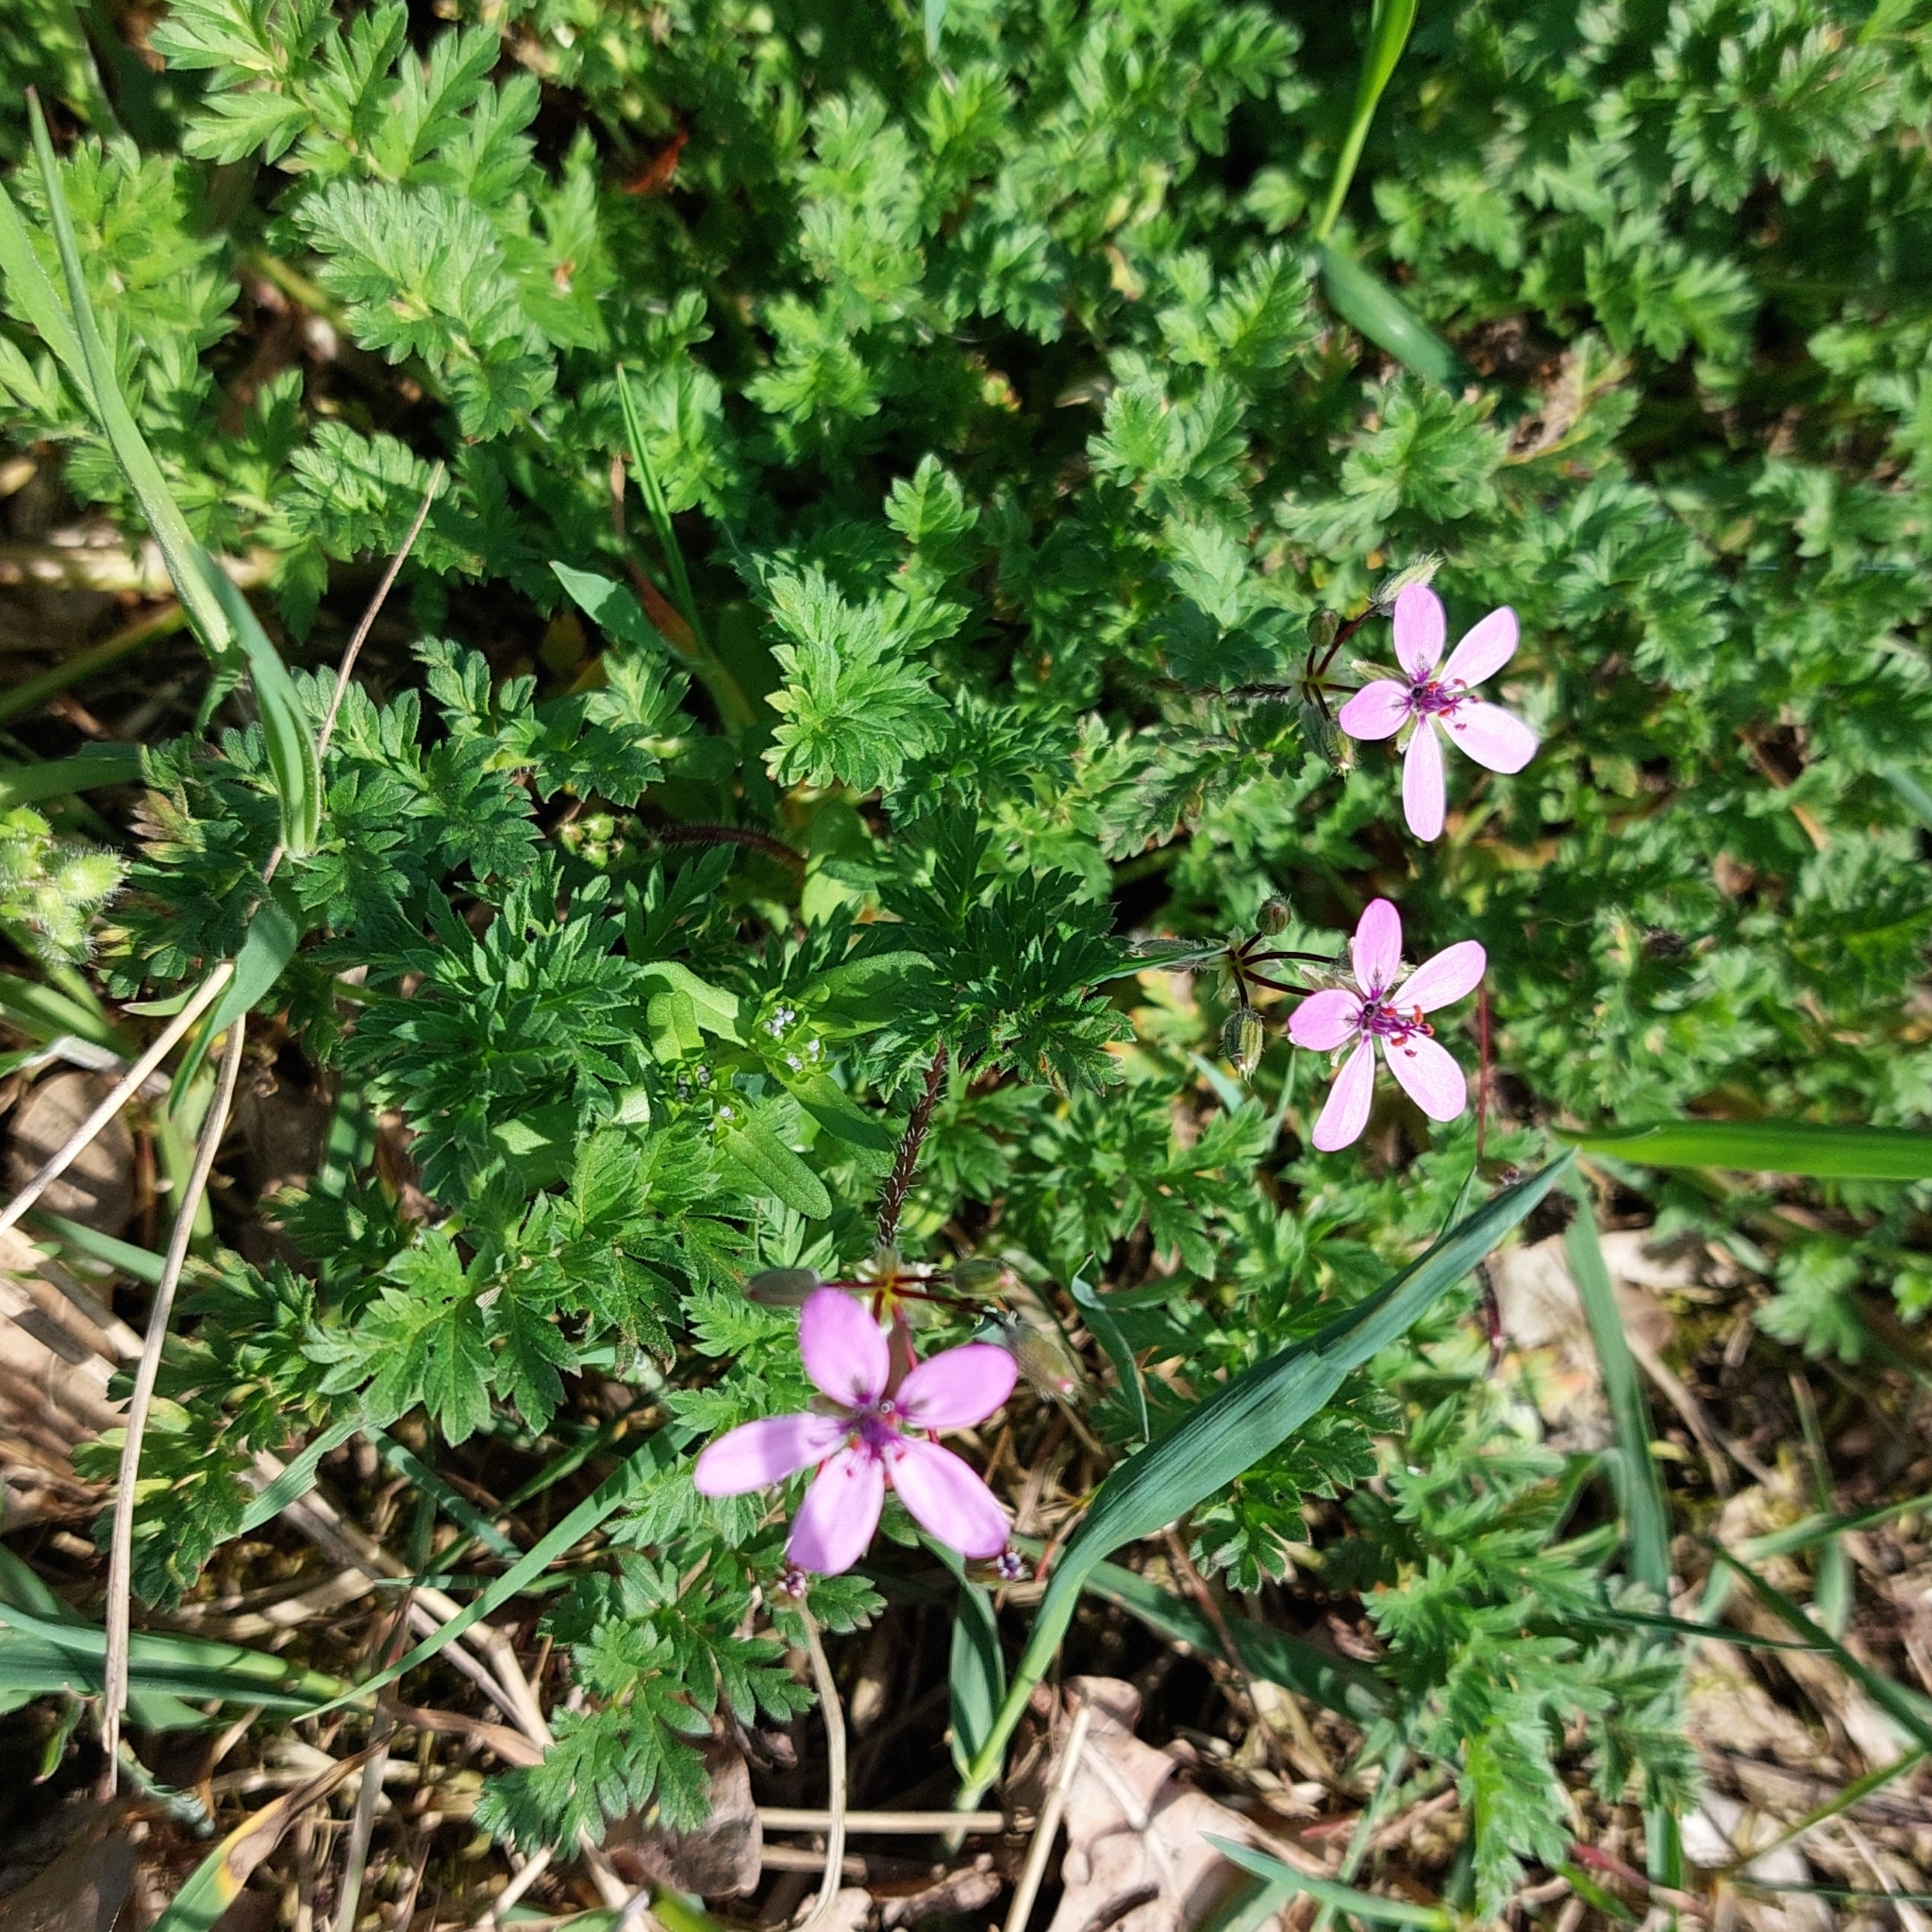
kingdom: Plantae
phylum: Tracheophyta
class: Magnoliopsida
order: Geraniales
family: Geraniaceae
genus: Erodium
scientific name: Erodium cicutarium
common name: Common stork's-bill
